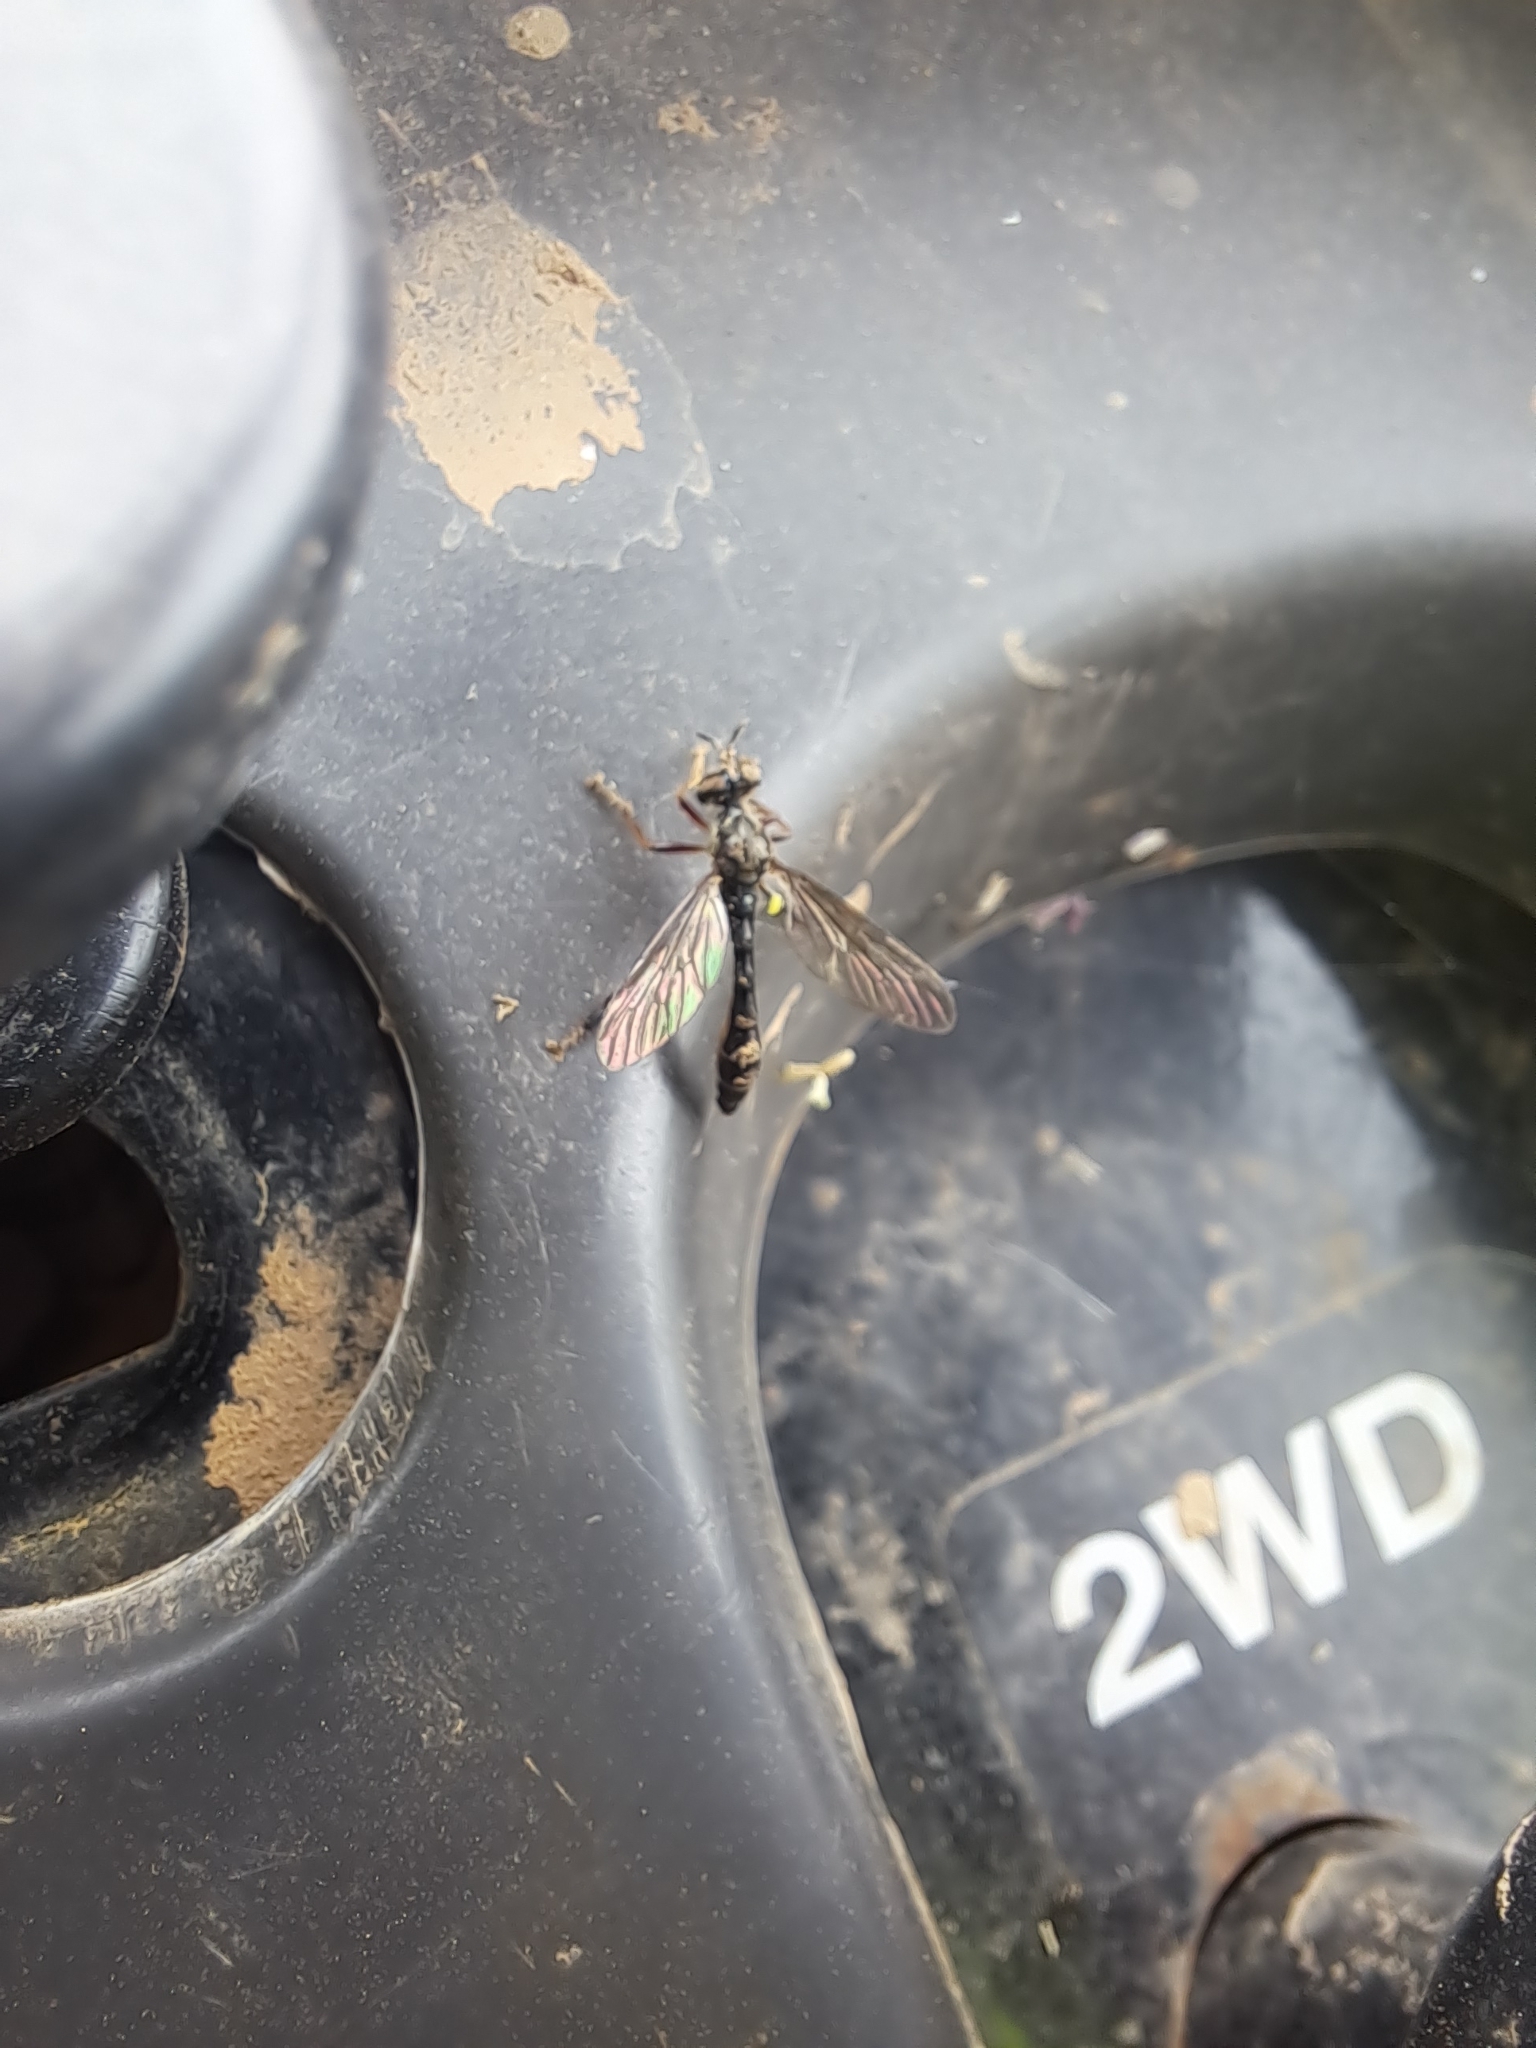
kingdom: Animalia
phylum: Arthropoda
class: Insecta
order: Diptera
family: Asilidae
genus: Dioctria
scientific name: Dioctria hyalipennis
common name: Stripe-legged robberfly
